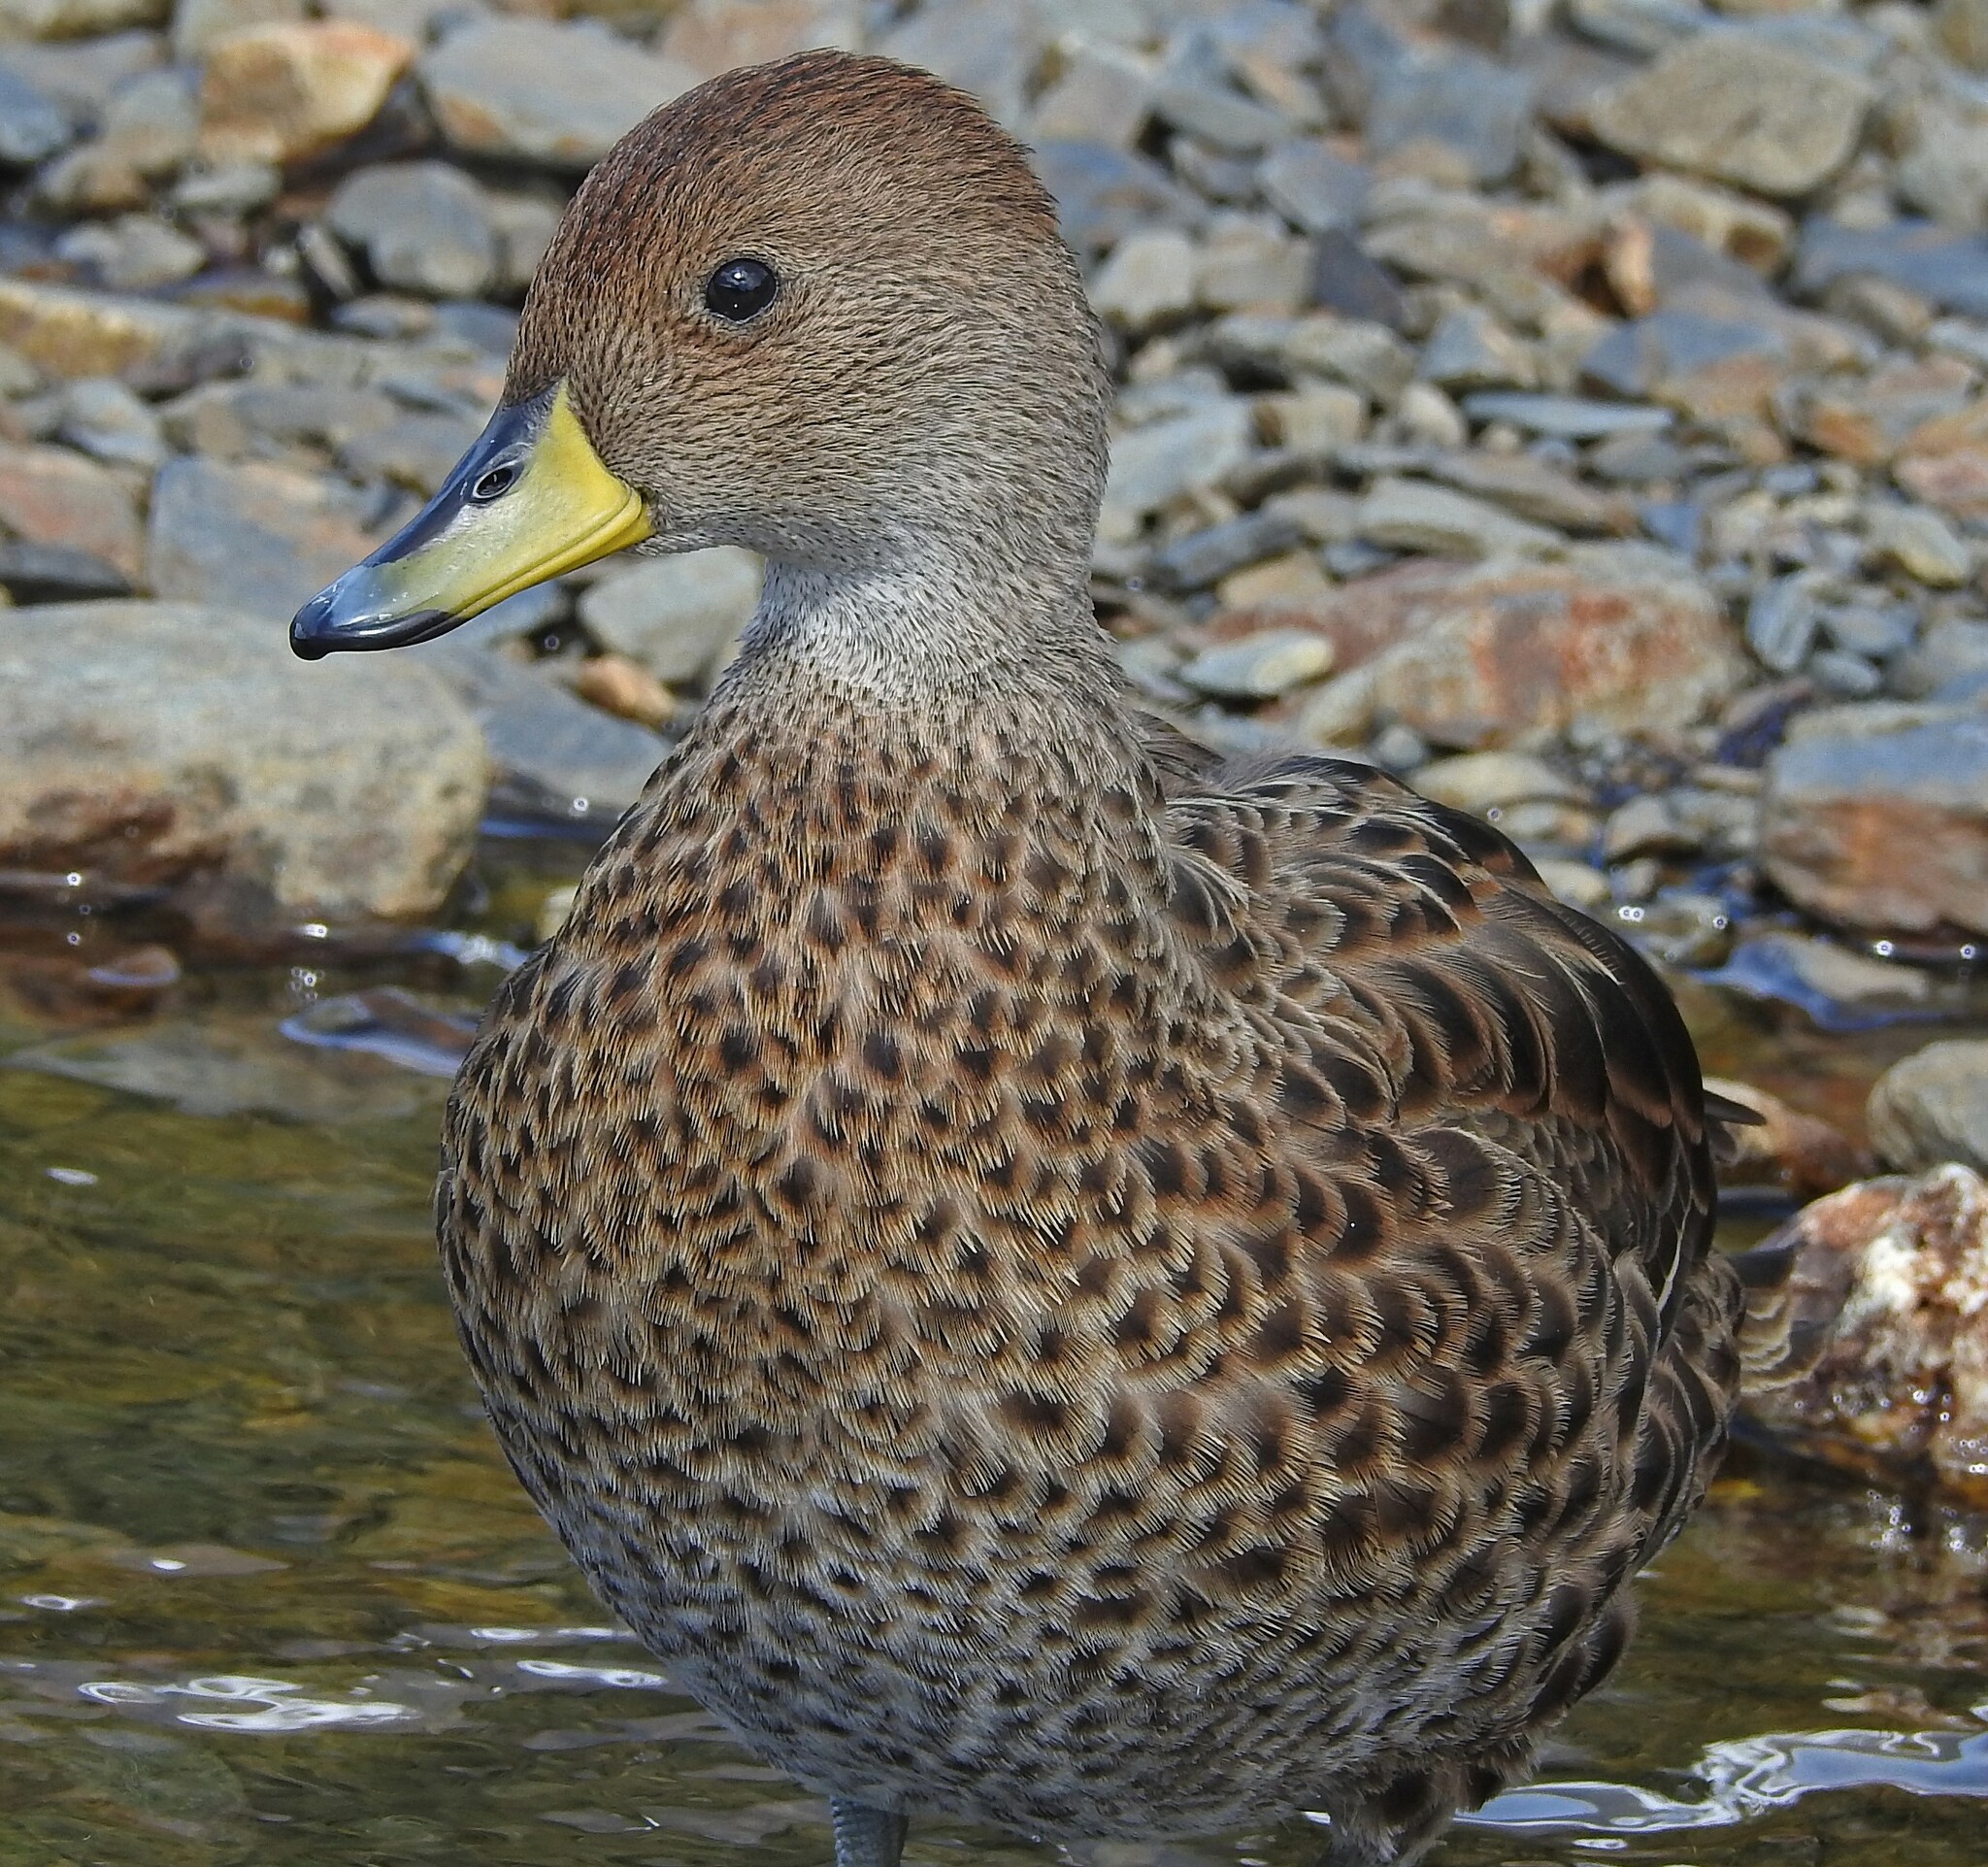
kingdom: Animalia
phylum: Chordata
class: Aves
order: Anseriformes
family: Anatidae
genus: Anas
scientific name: Anas georgica
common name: Yellow-billed pintail
